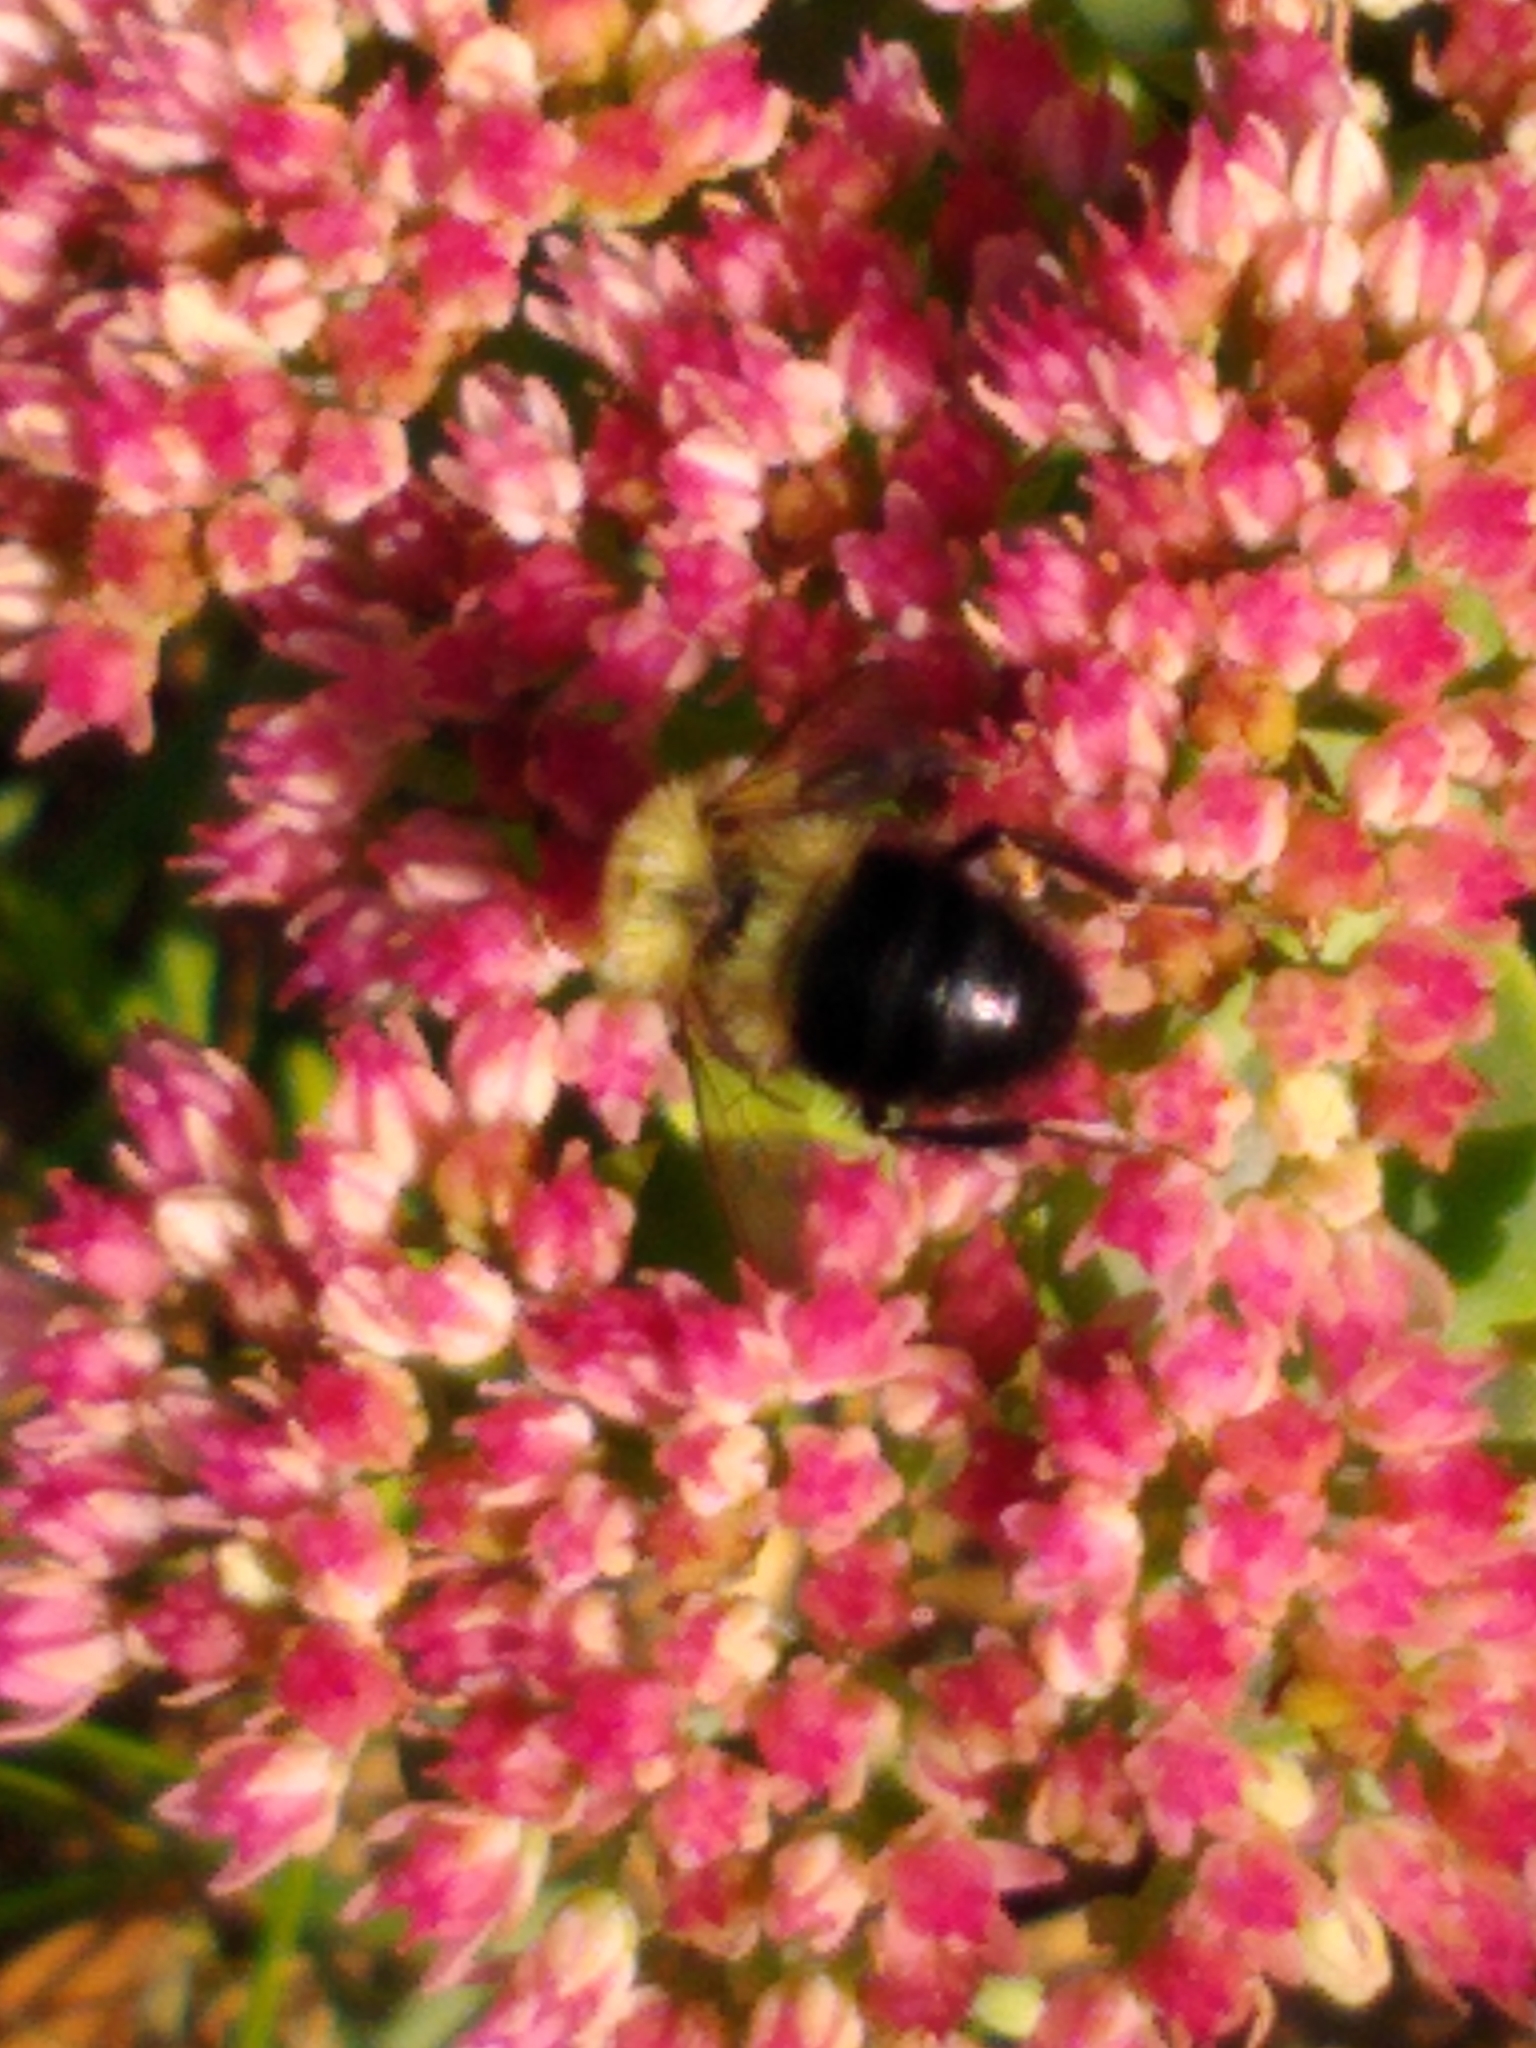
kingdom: Animalia
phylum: Arthropoda
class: Insecta
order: Hymenoptera
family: Apidae
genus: Bombus
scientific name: Bombus impatiens
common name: Common eastern bumble bee
